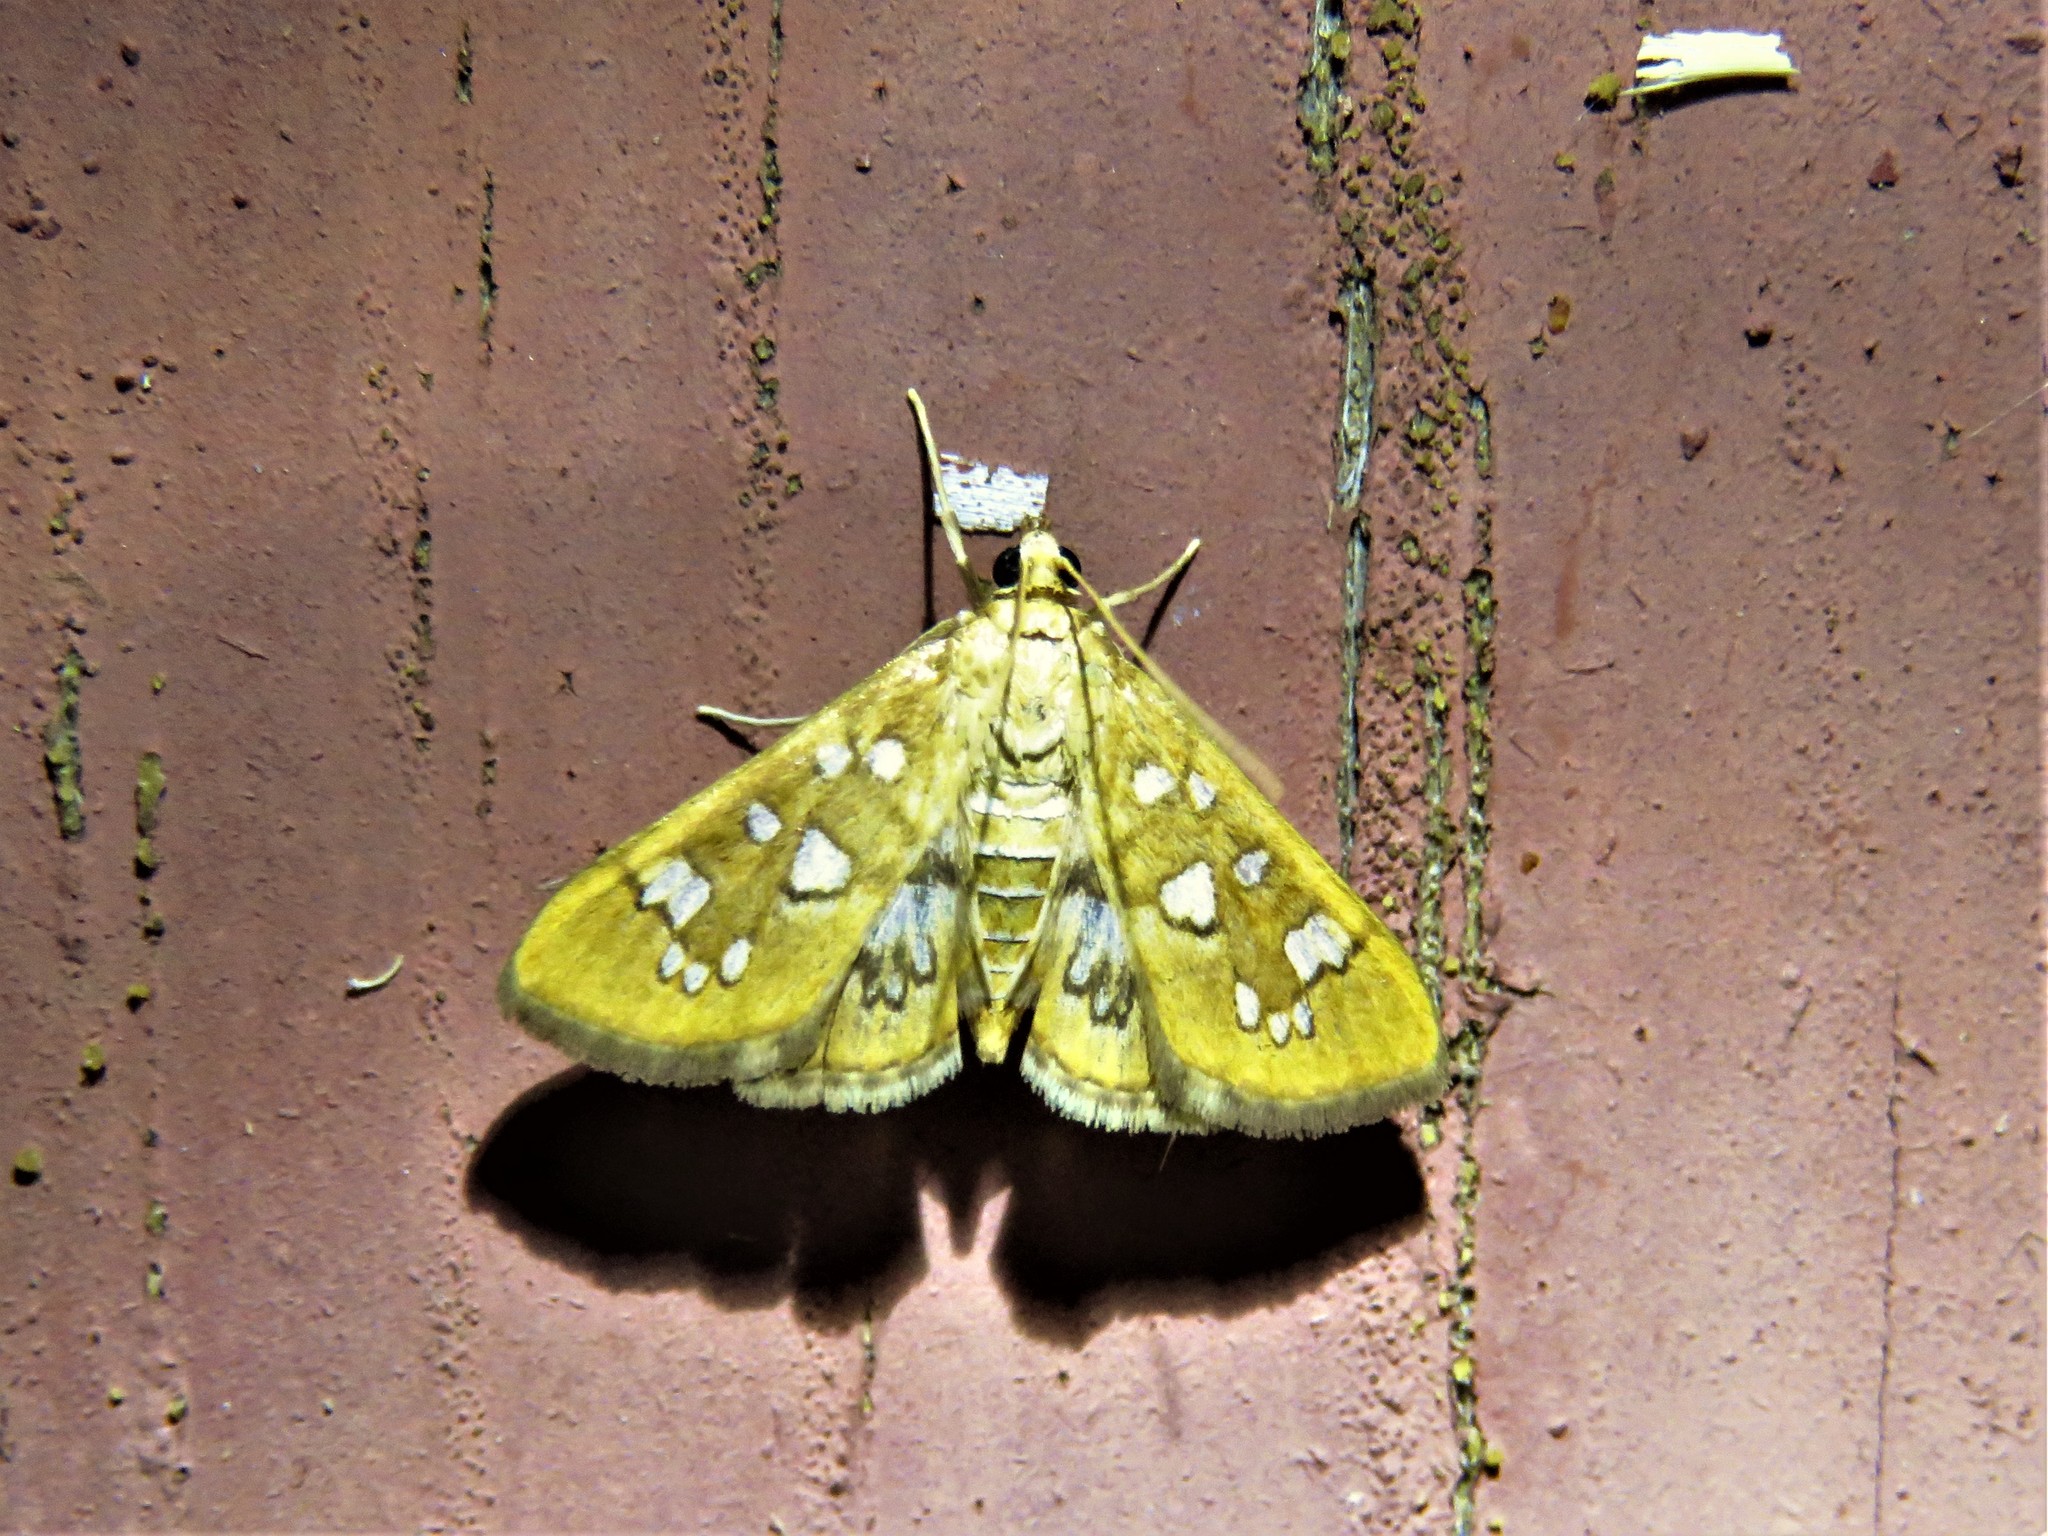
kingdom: Animalia
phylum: Arthropoda
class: Insecta
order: Lepidoptera
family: Crambidae
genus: Samea
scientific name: Samea baccatalis
